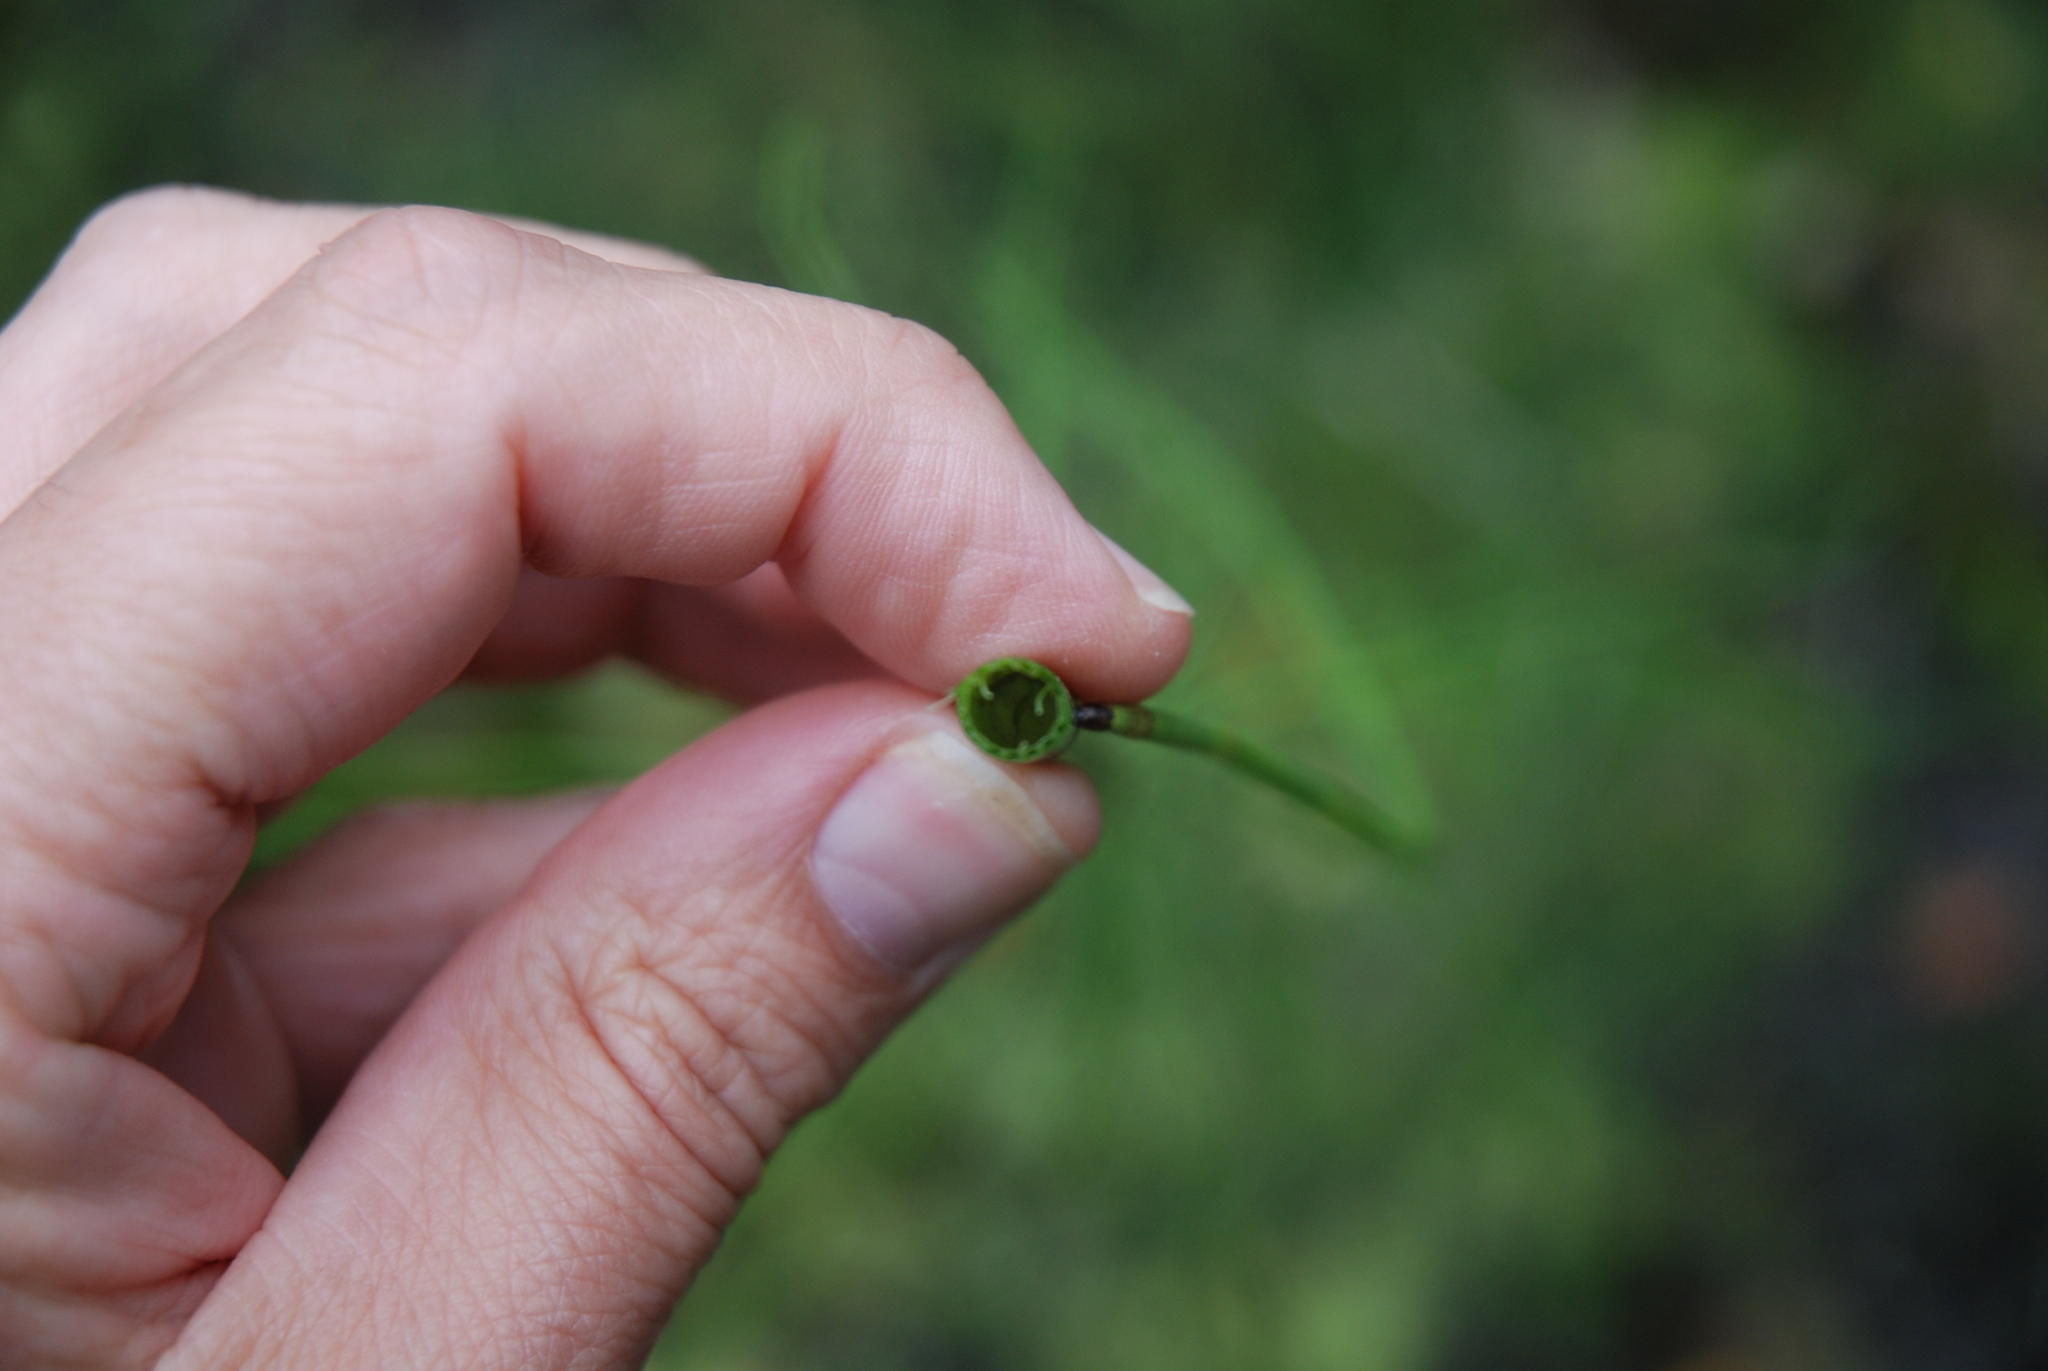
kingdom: Plantae
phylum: Tracheophyta
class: Polypodiopsida
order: Equisetales
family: Equisetaceae
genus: Equisetum
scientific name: Equisetum fluviatile
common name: Water horsetail
